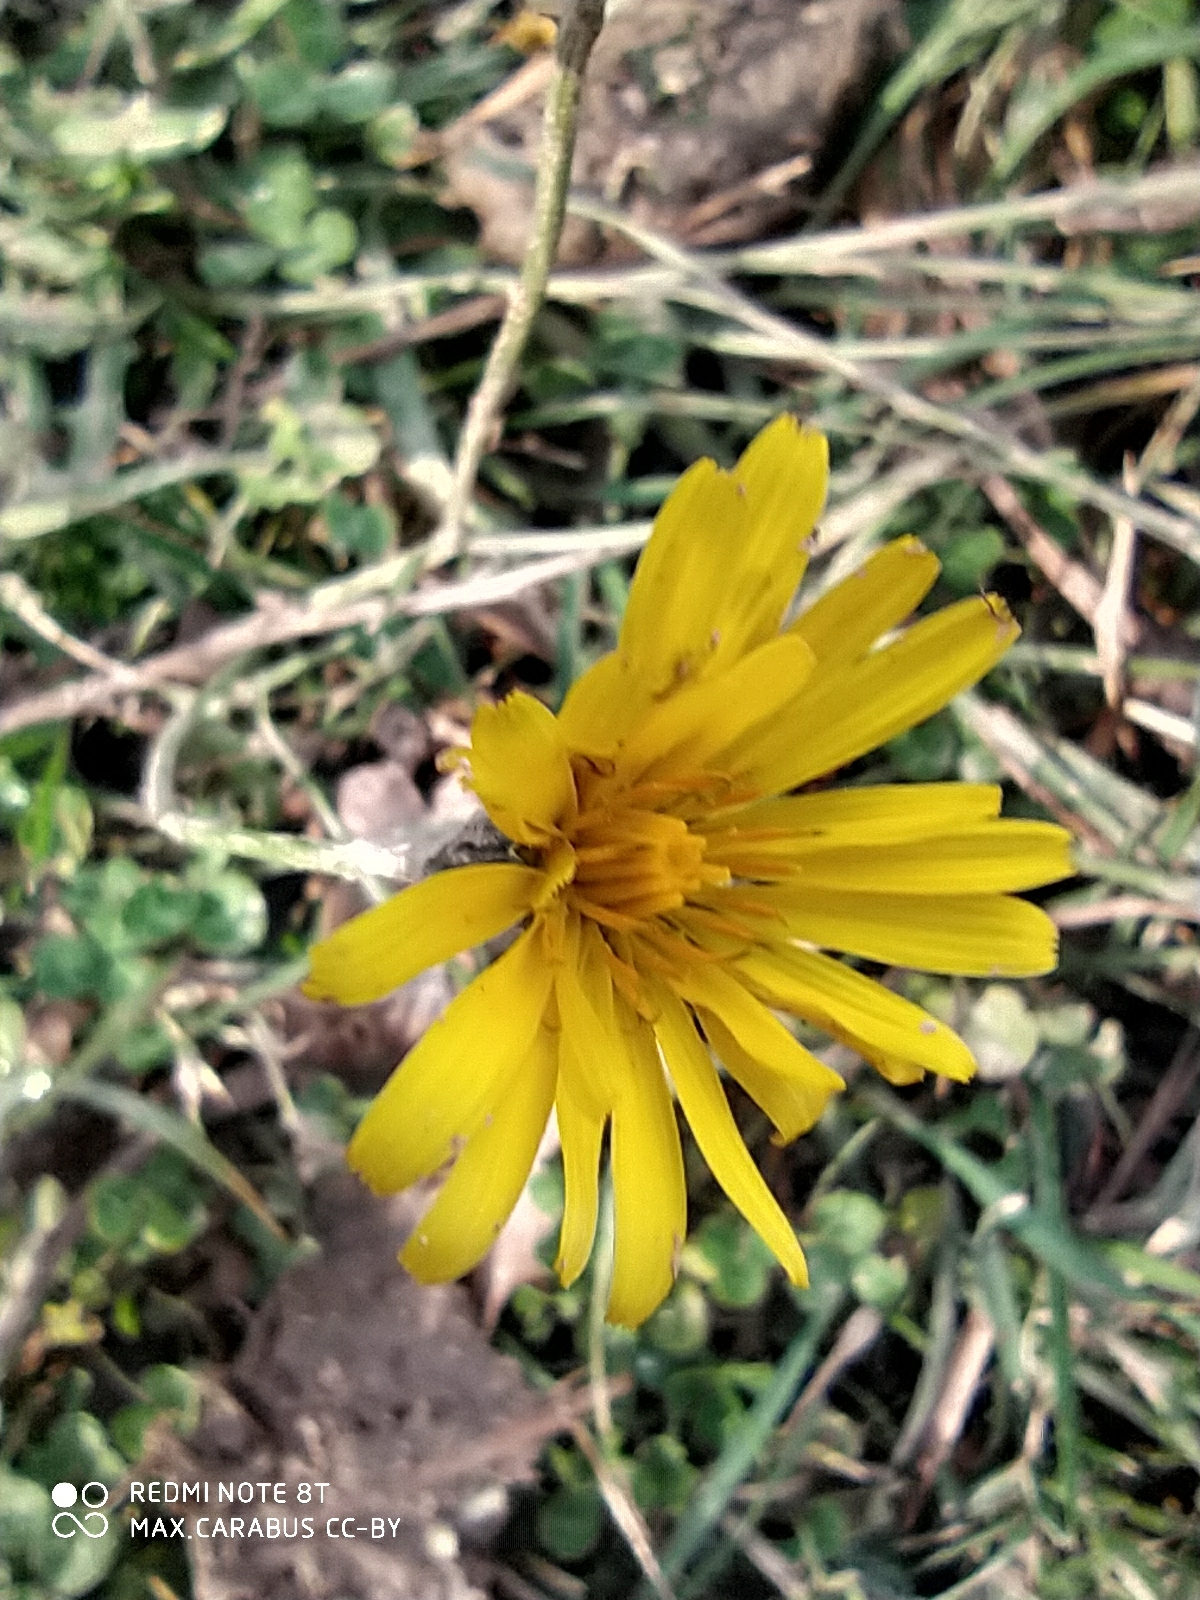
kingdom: Plantae
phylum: Tracheophyta
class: Magnoliopsida
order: Asterales
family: Asteraceae
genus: Scorzoneroides
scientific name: Scorzoneroides autumnalis
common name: Autumn hawkbit
